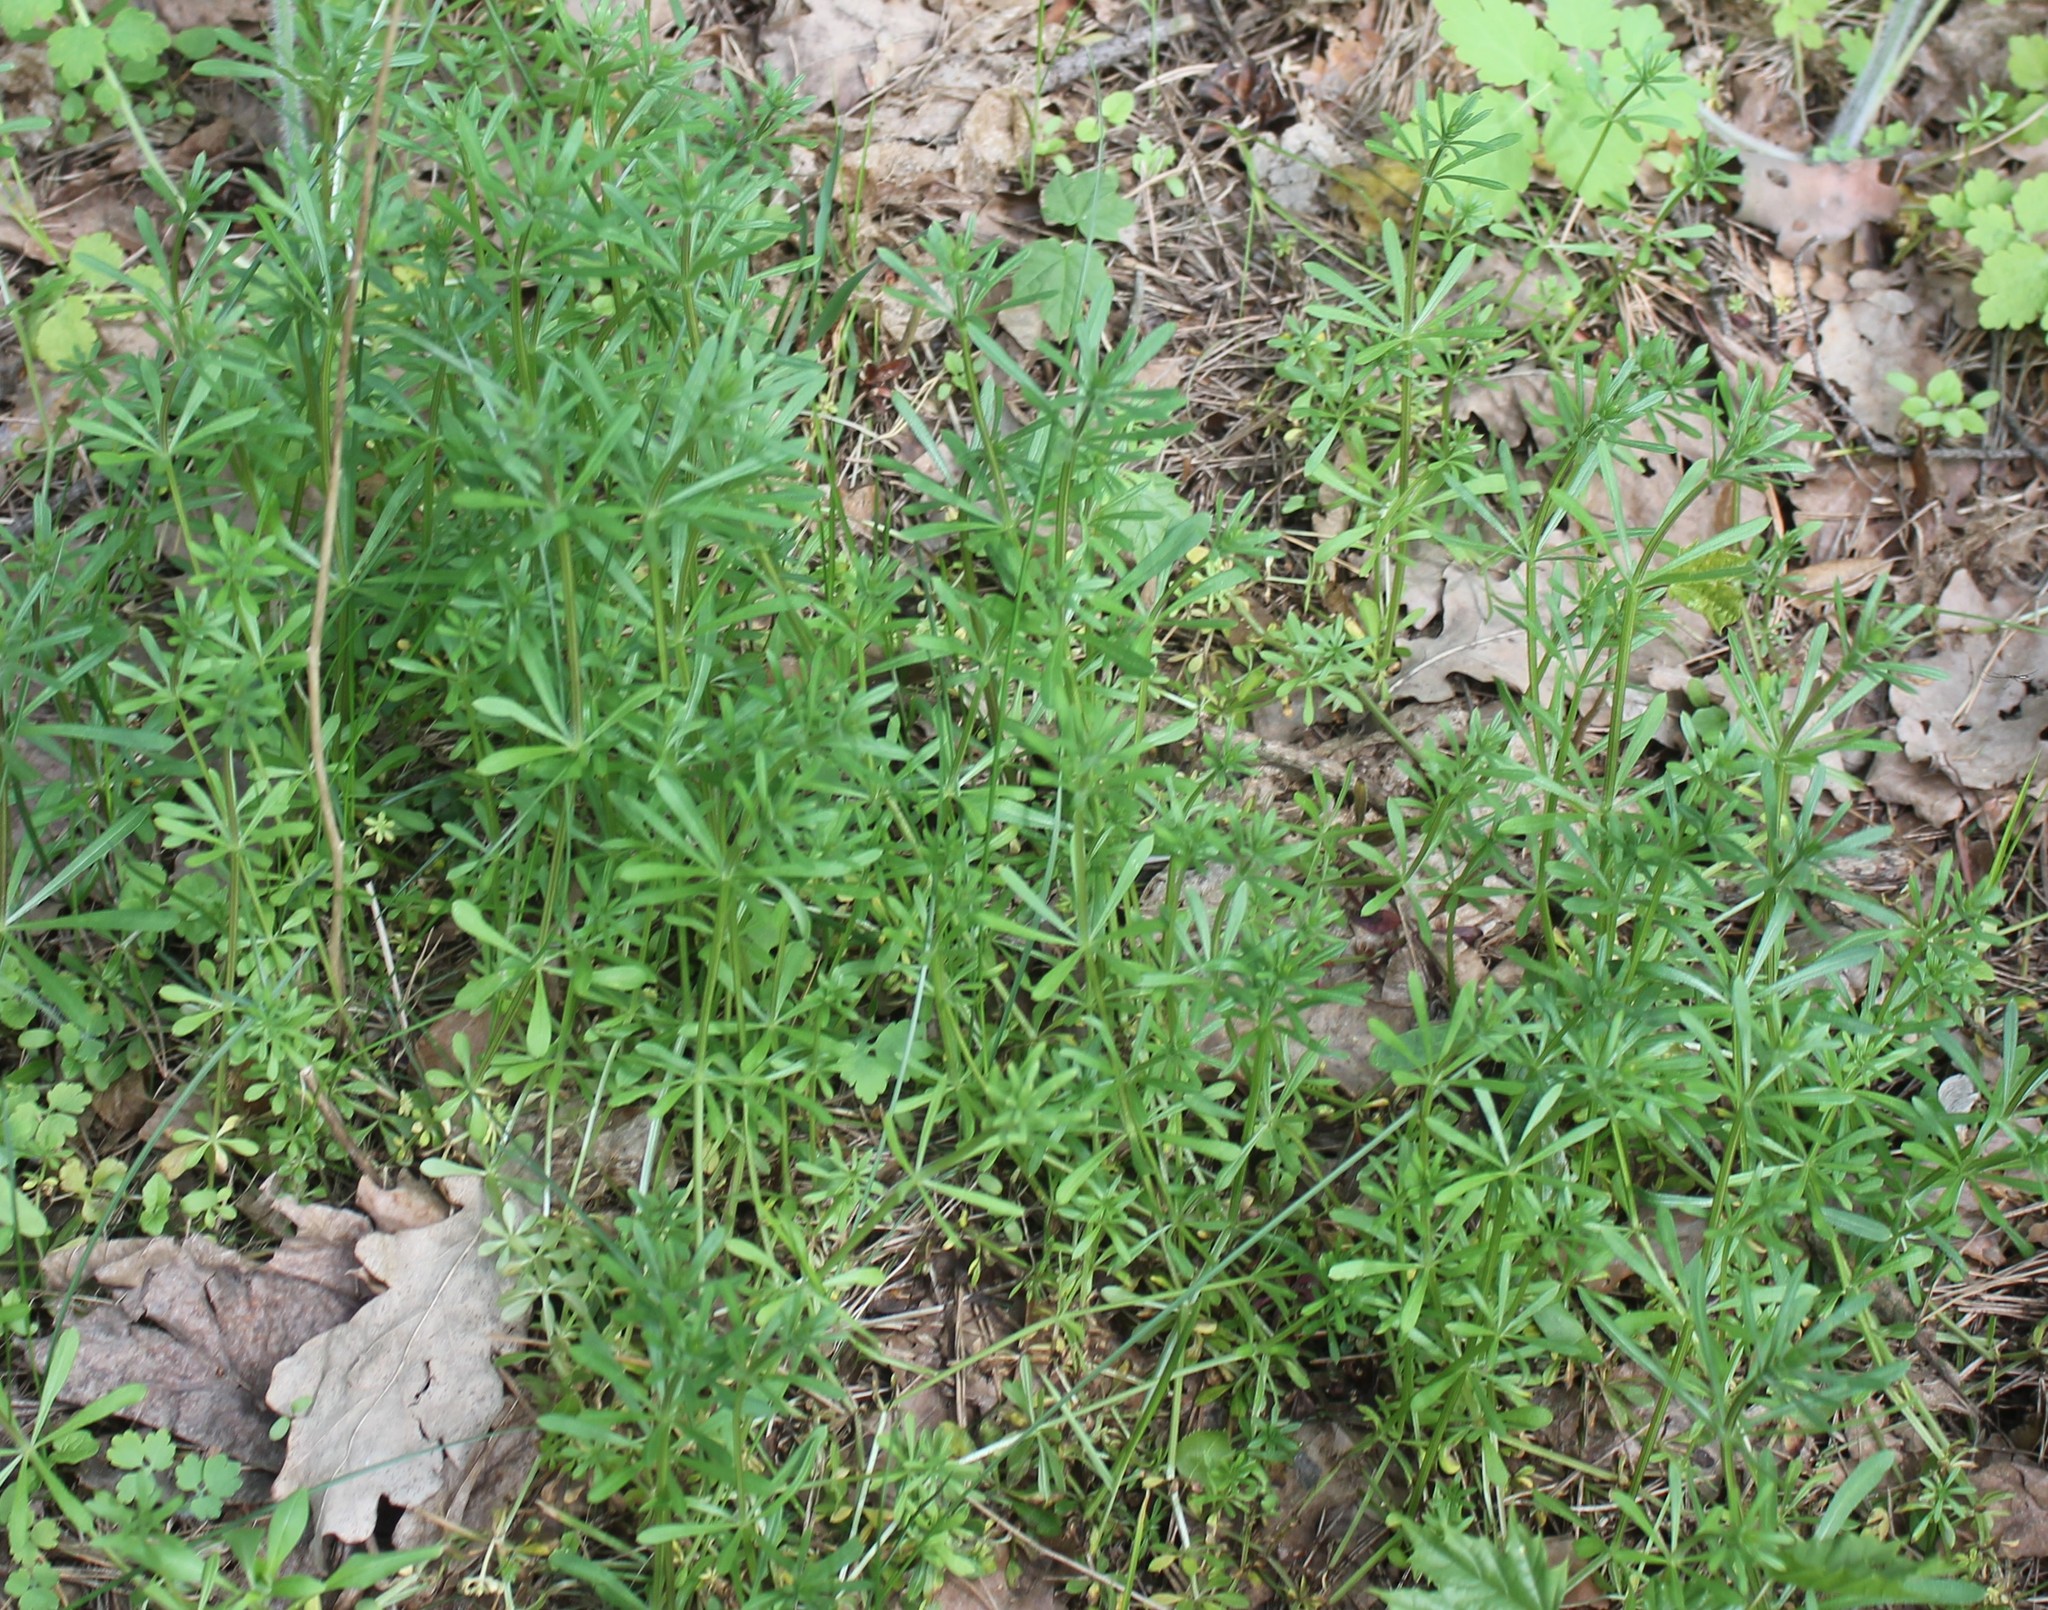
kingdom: Plantae
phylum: Tracheophyta
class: Magnoliopsida
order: Gentianales
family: Rubiaceae
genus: Galium
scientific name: Galium aparine
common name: Cleavers
